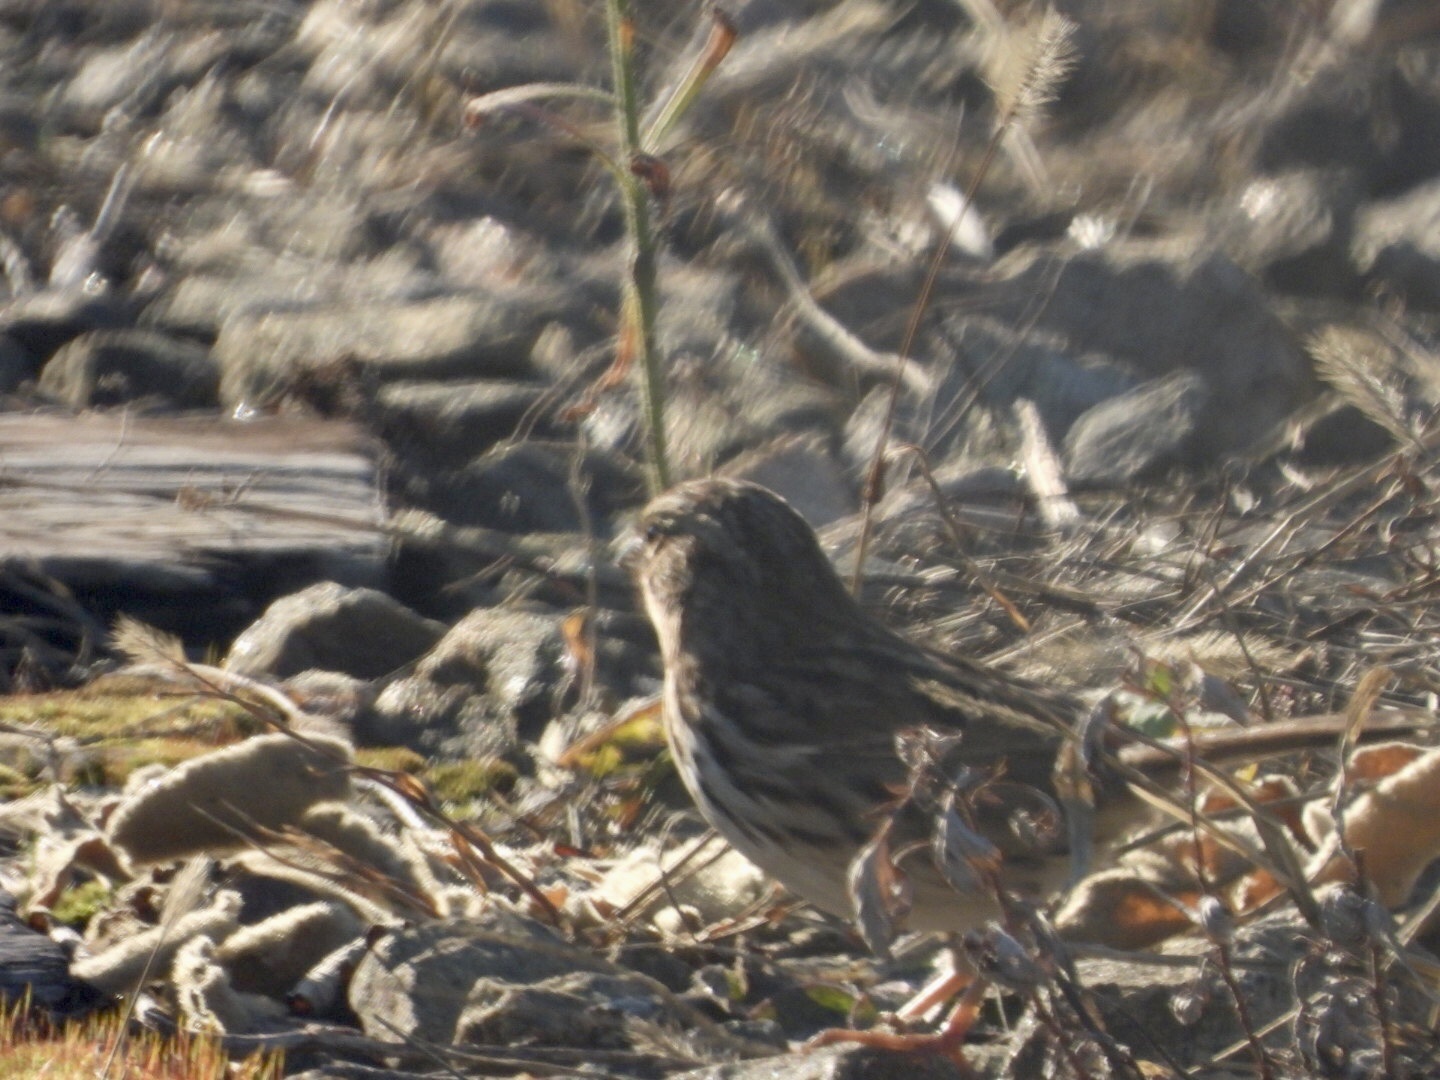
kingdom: Animalia
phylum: Chordata
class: Aves
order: Passeriformes
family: Passerellidae
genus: Melospiza
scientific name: Melospiza melodia
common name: Song sparrow
